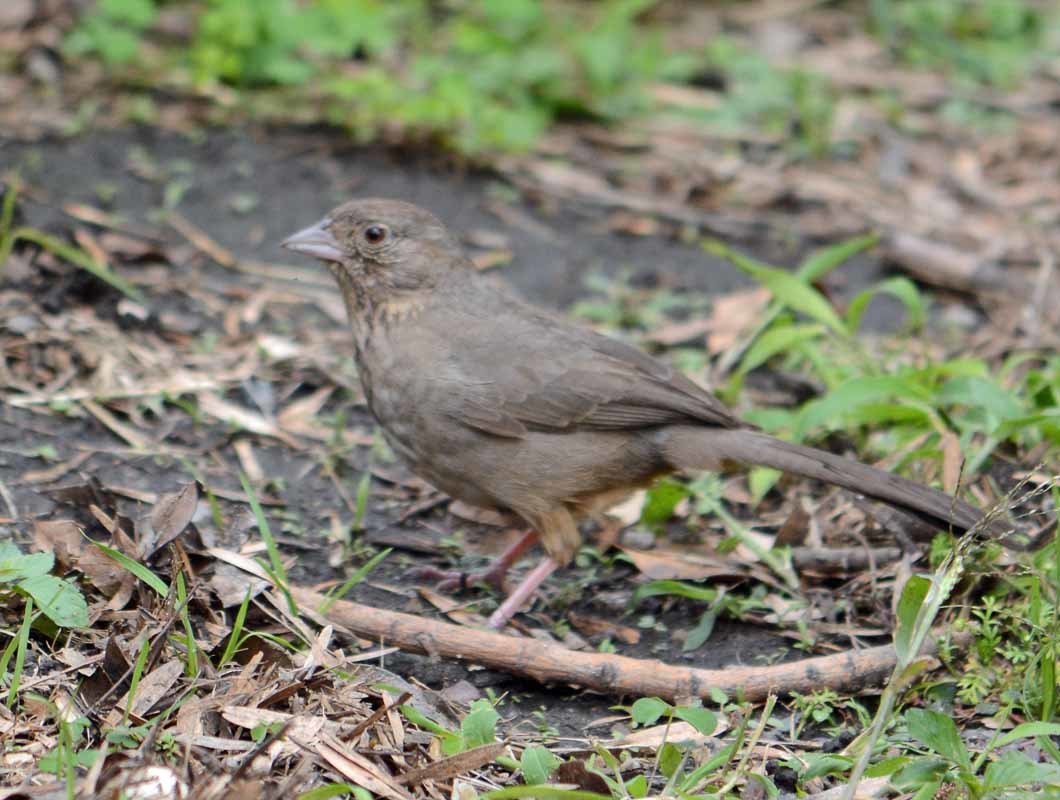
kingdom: Animalia
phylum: Chordata
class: Aves
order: Passeriformes
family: Passerellidae
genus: Melozone
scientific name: Melozone fusca
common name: Canyon towhee
